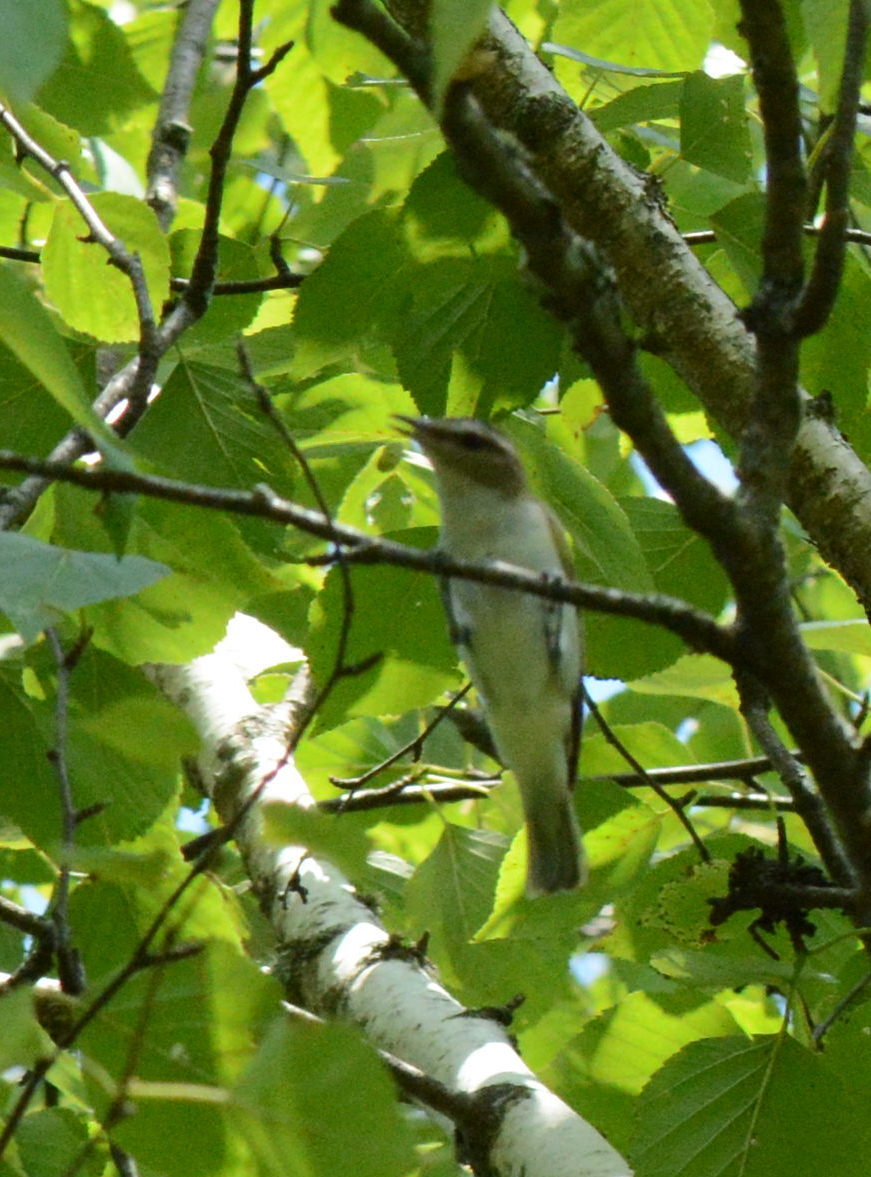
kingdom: Animalia
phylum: Chordata
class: Aves
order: Passeriformes
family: Vireonidae
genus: Vireo
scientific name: Vireo olivaceus
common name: Red-eyed vireo
